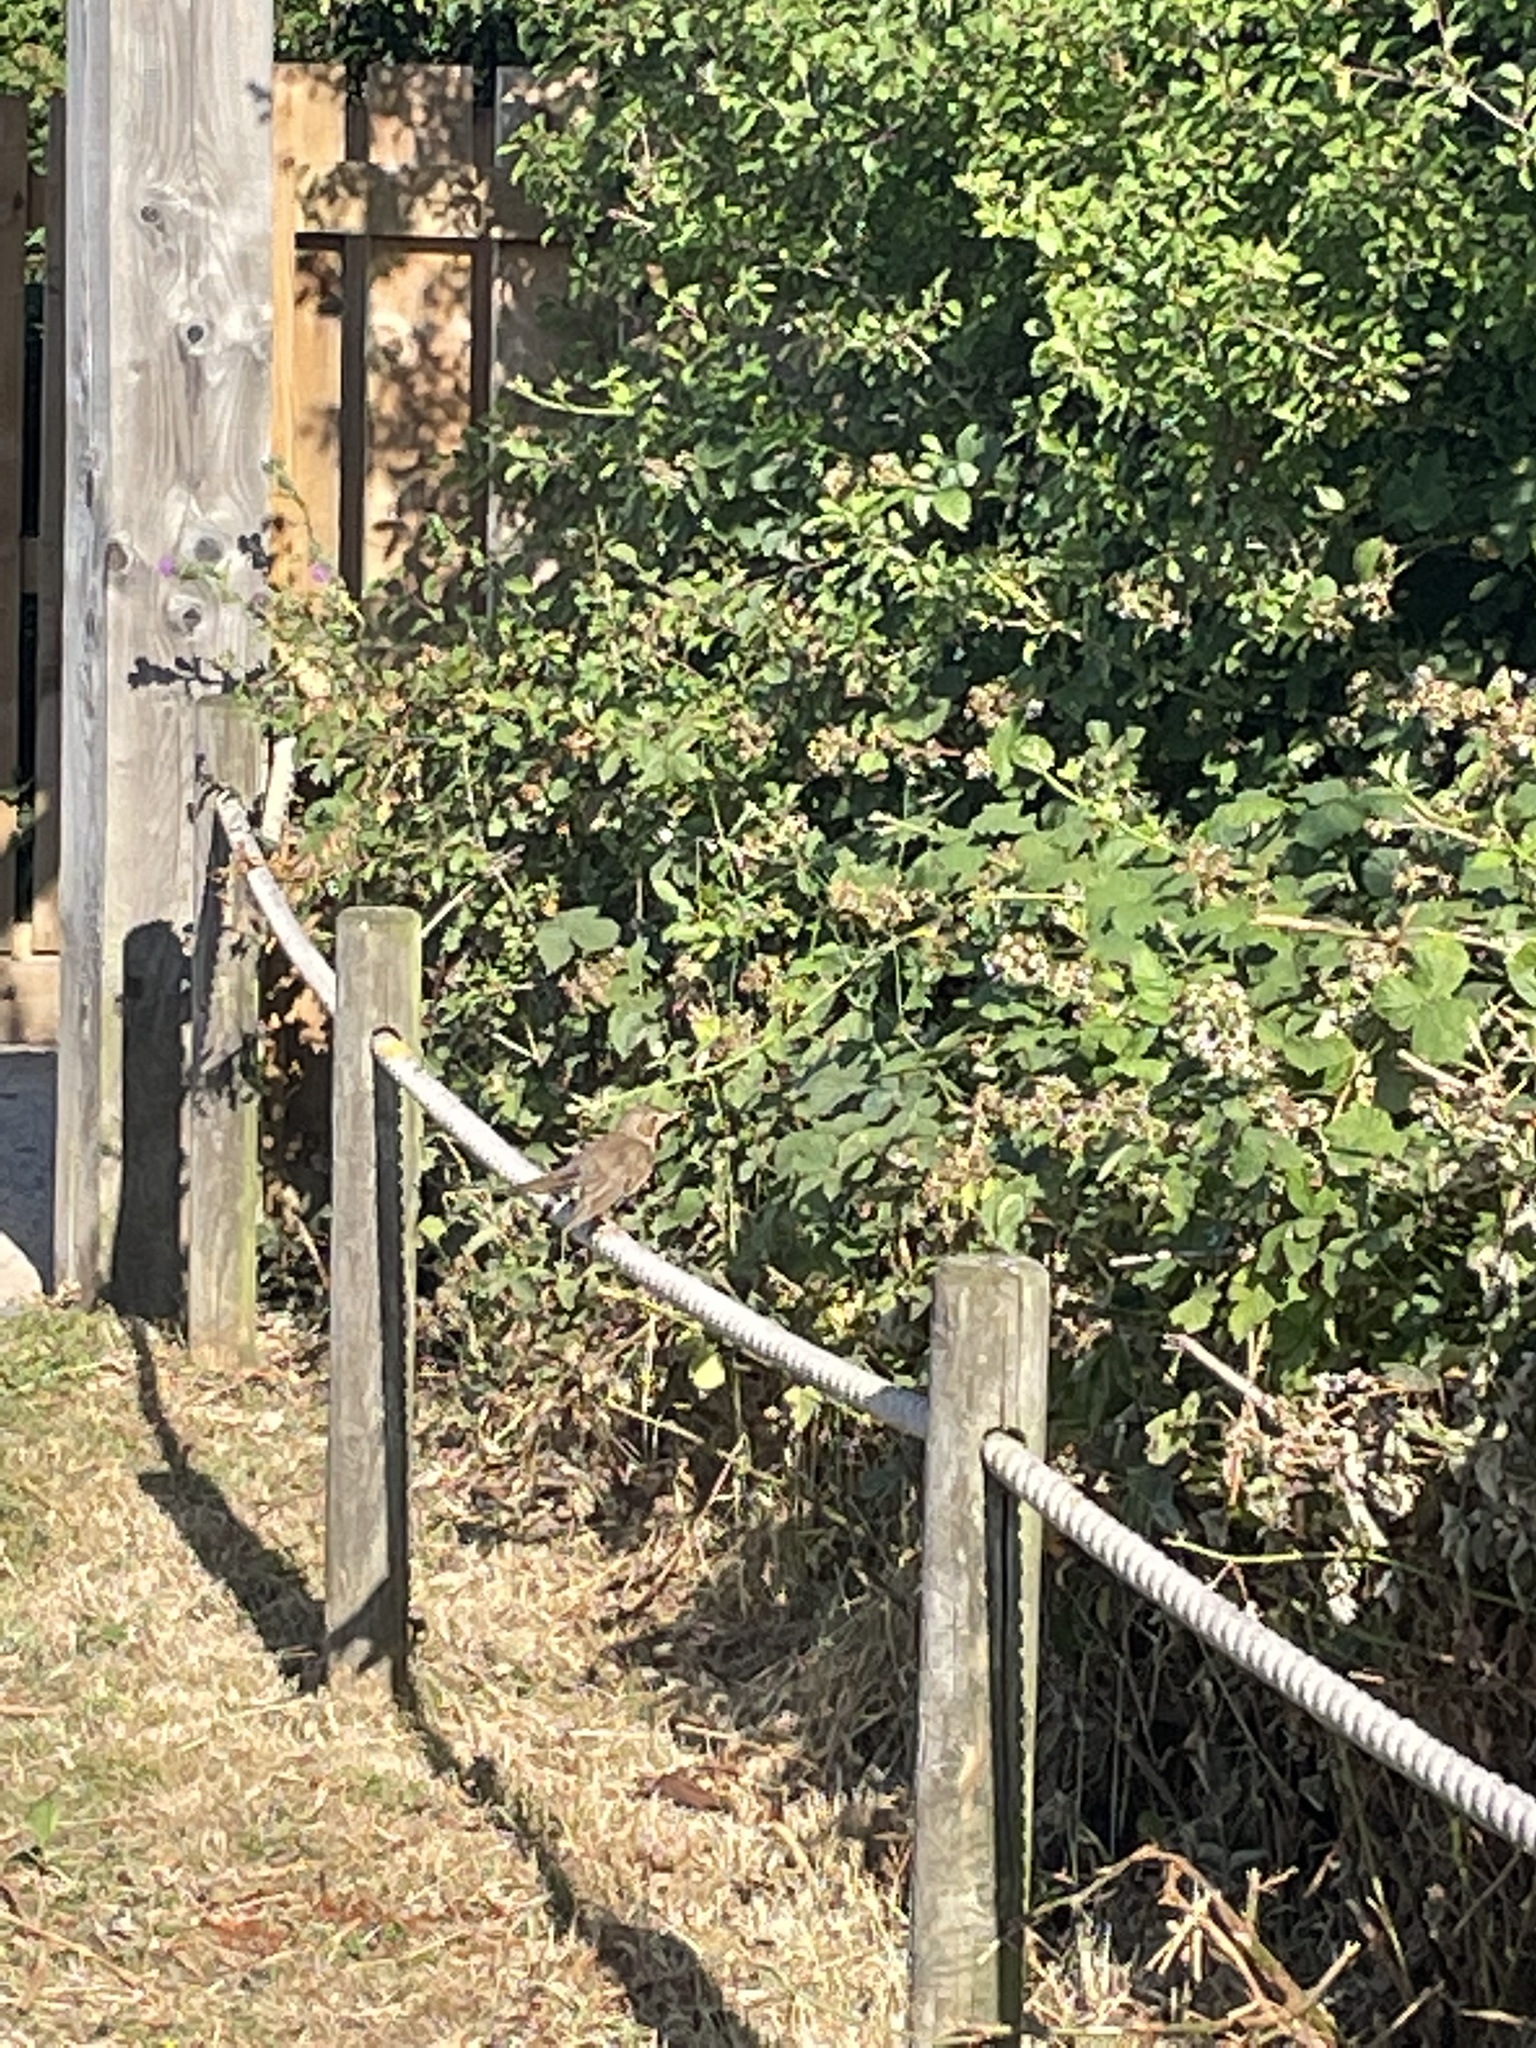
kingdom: Animalia
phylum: Chordata
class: Aves
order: Passeriformes
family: Turdidae
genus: Turdus
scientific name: Turdus philomelos
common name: Song thrush
